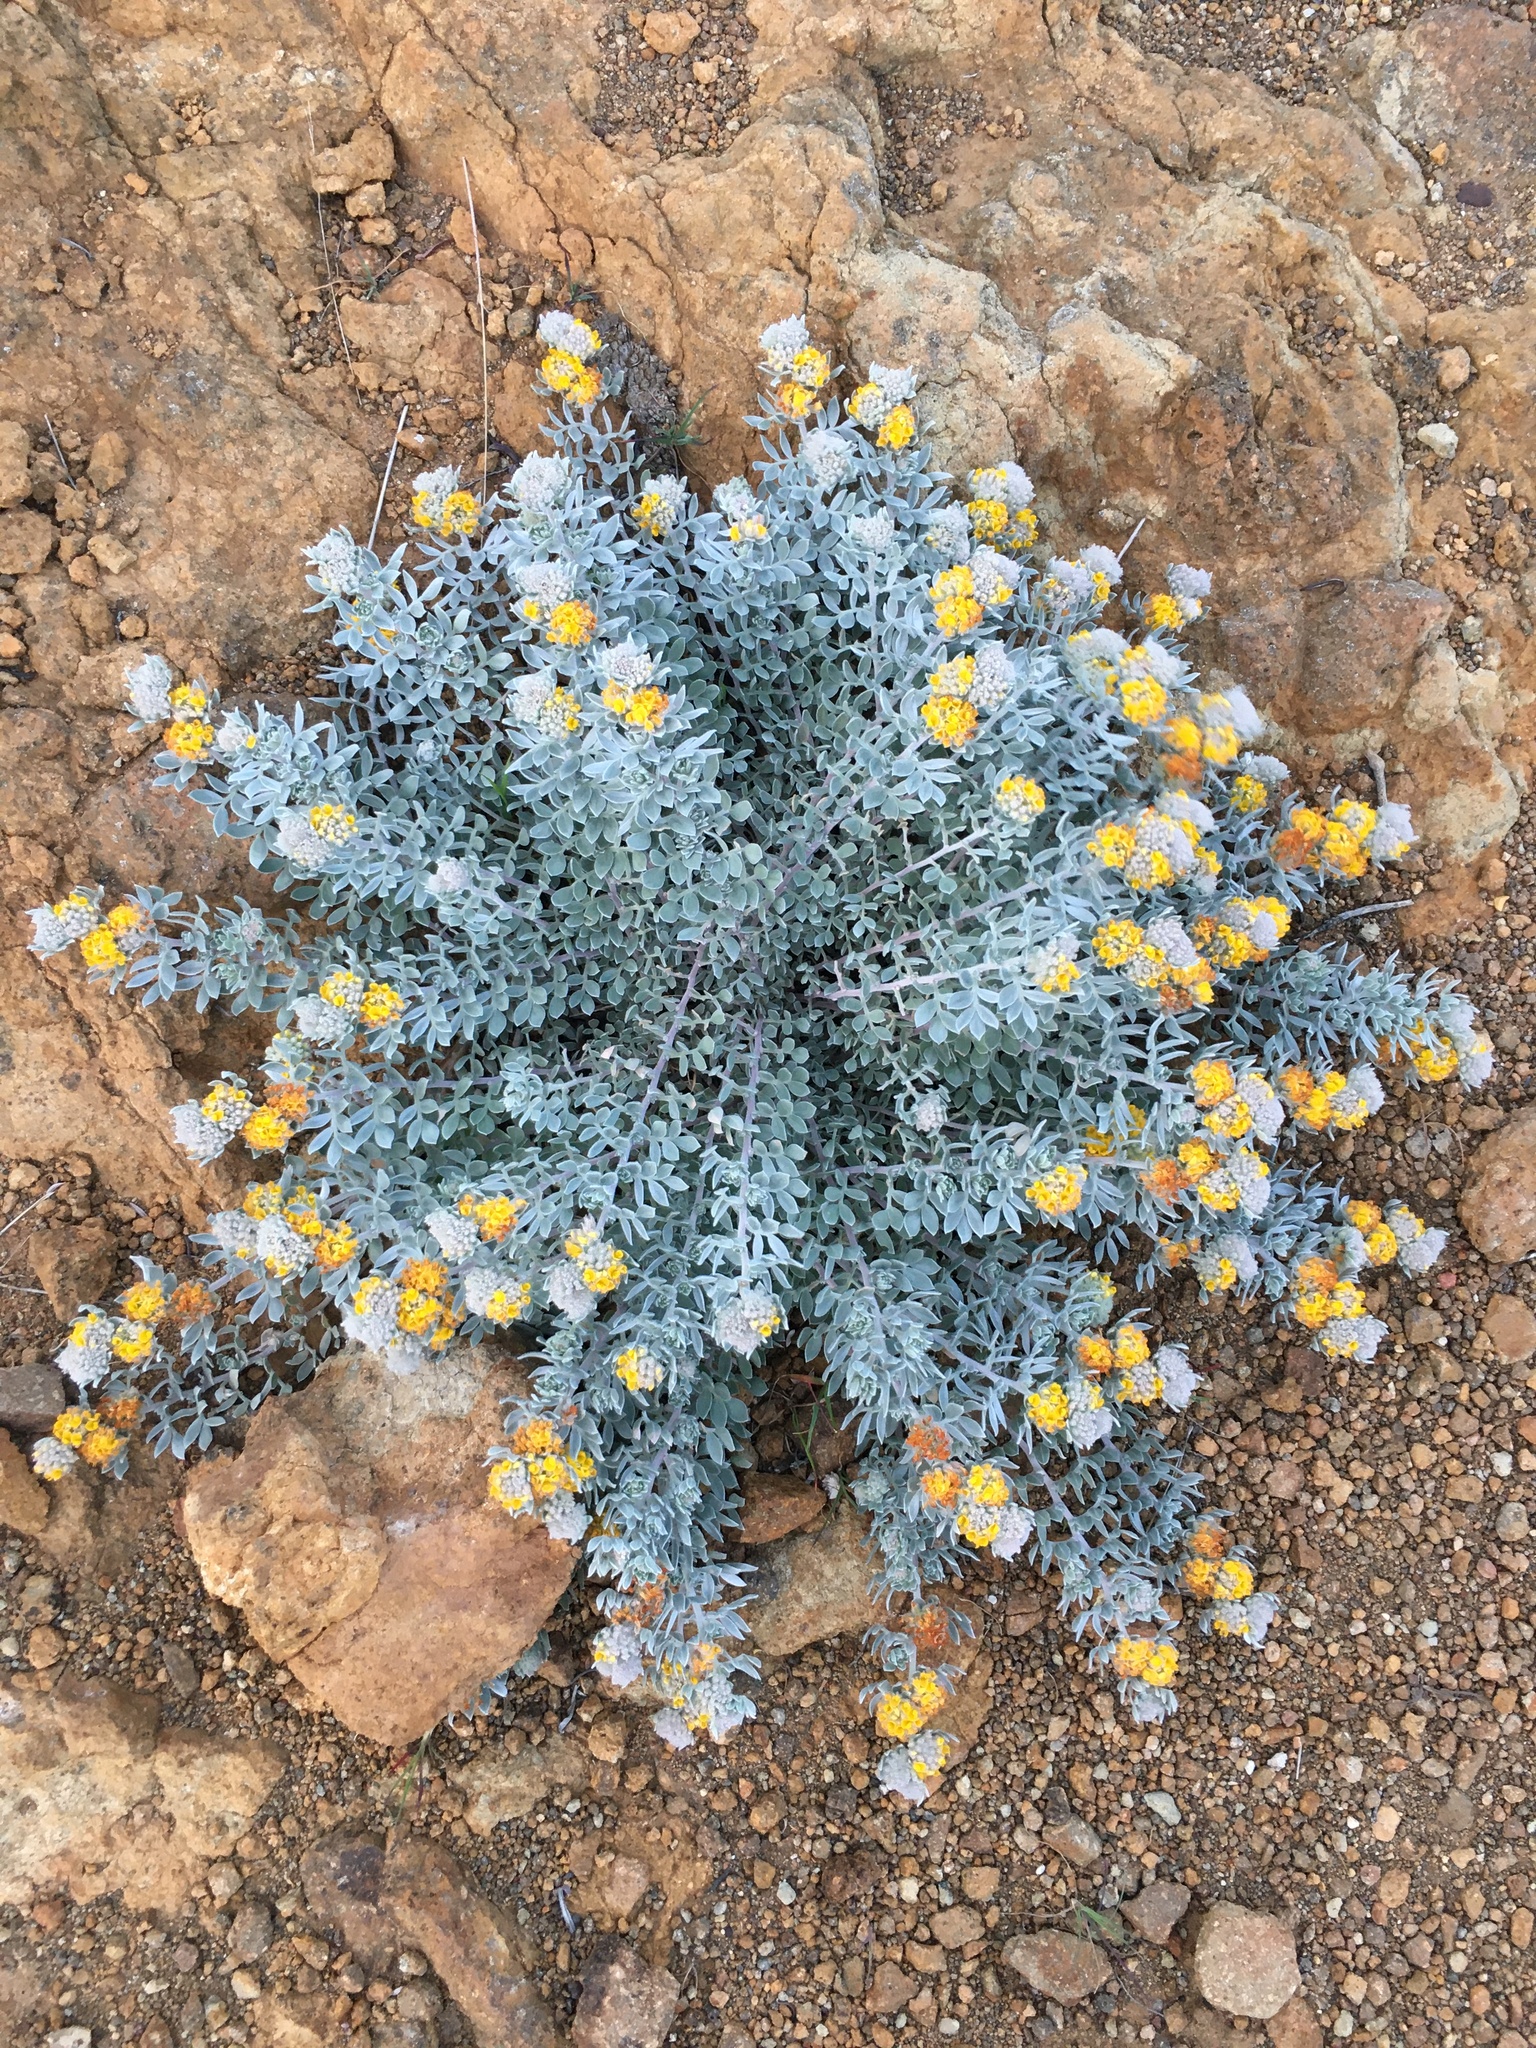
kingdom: Plantae
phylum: Tracheophyta
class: Magnoliopsida
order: Fabales
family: Fabaceae
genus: Acmispon
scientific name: Acmispon argophyllus
